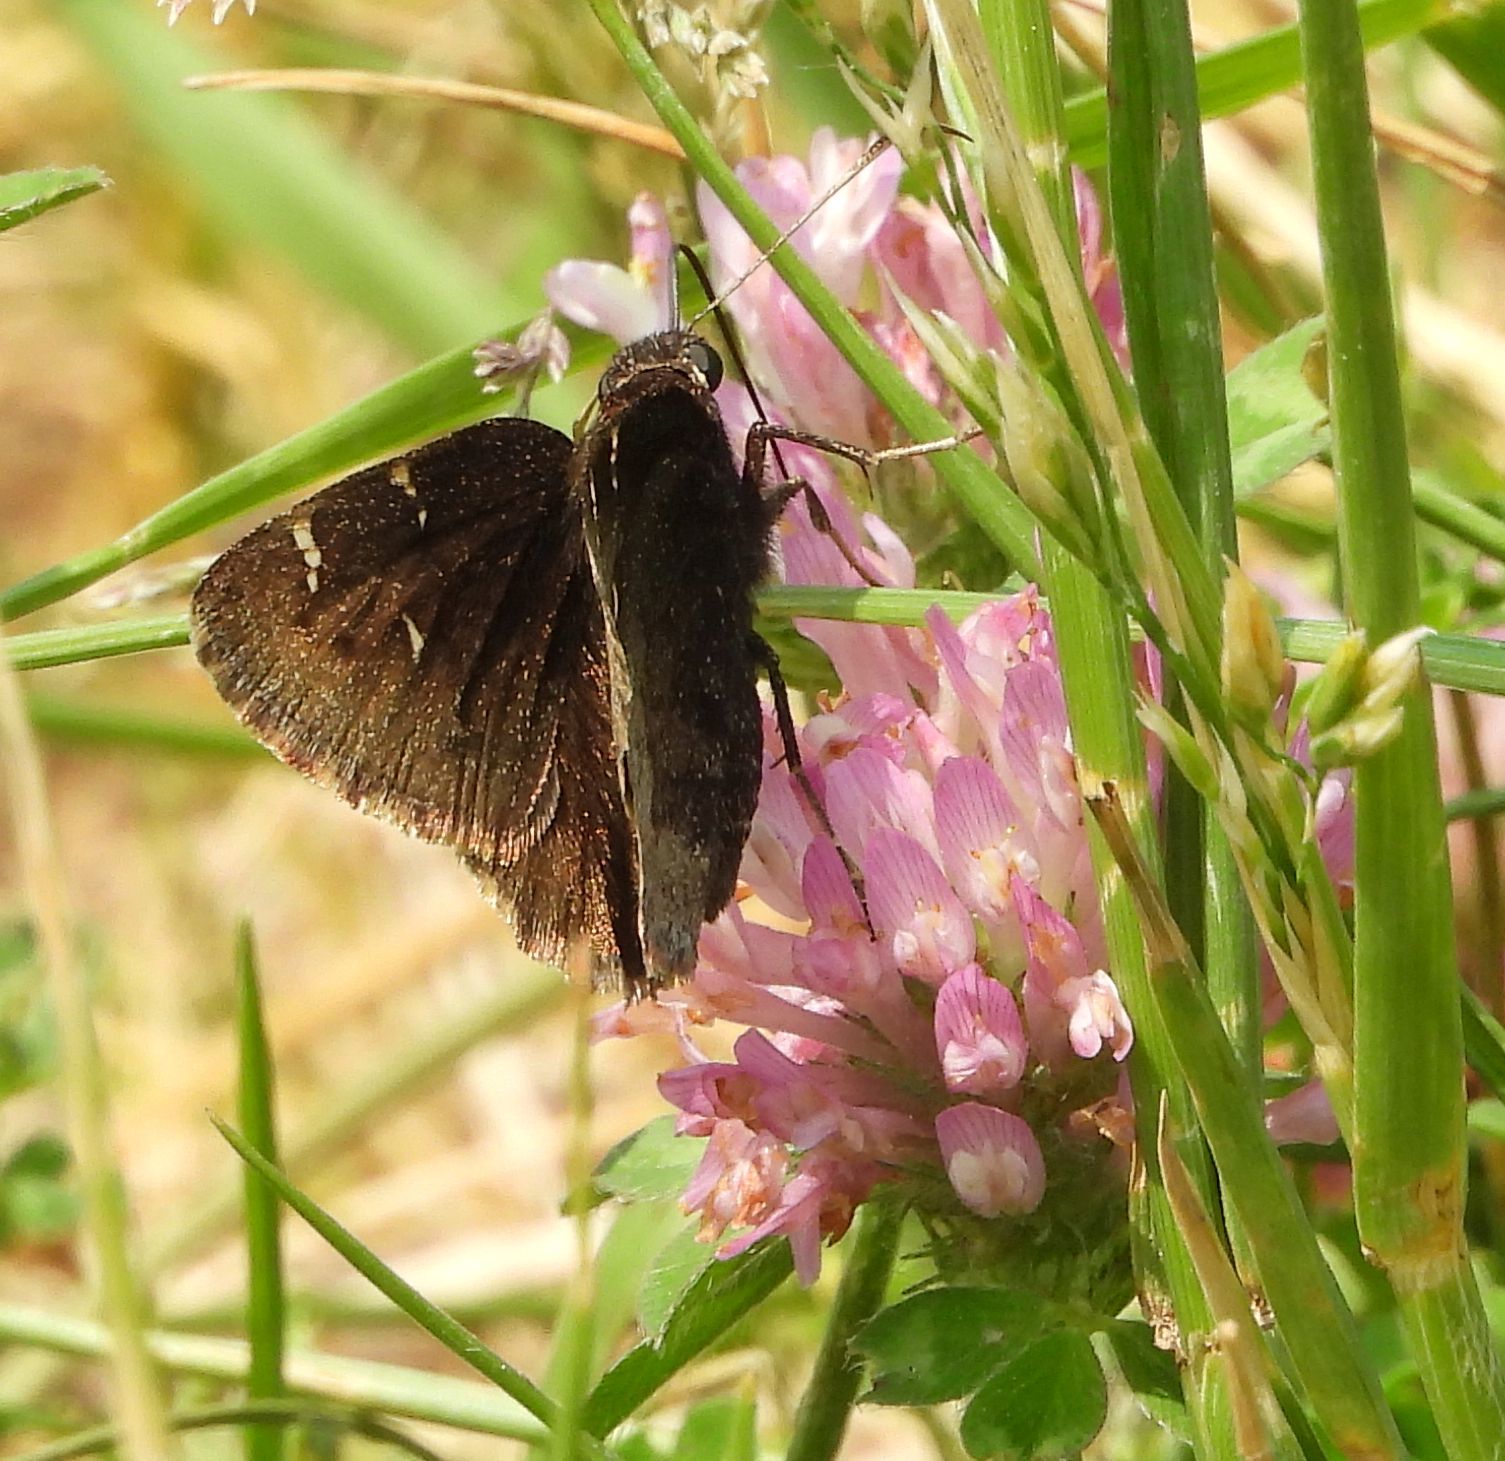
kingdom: Animalia
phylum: Arthropoda
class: Insecta
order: Lepidoptera
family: Hesperiidae
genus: Thorybes
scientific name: Thorybes pylades
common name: Northern cloudywing
